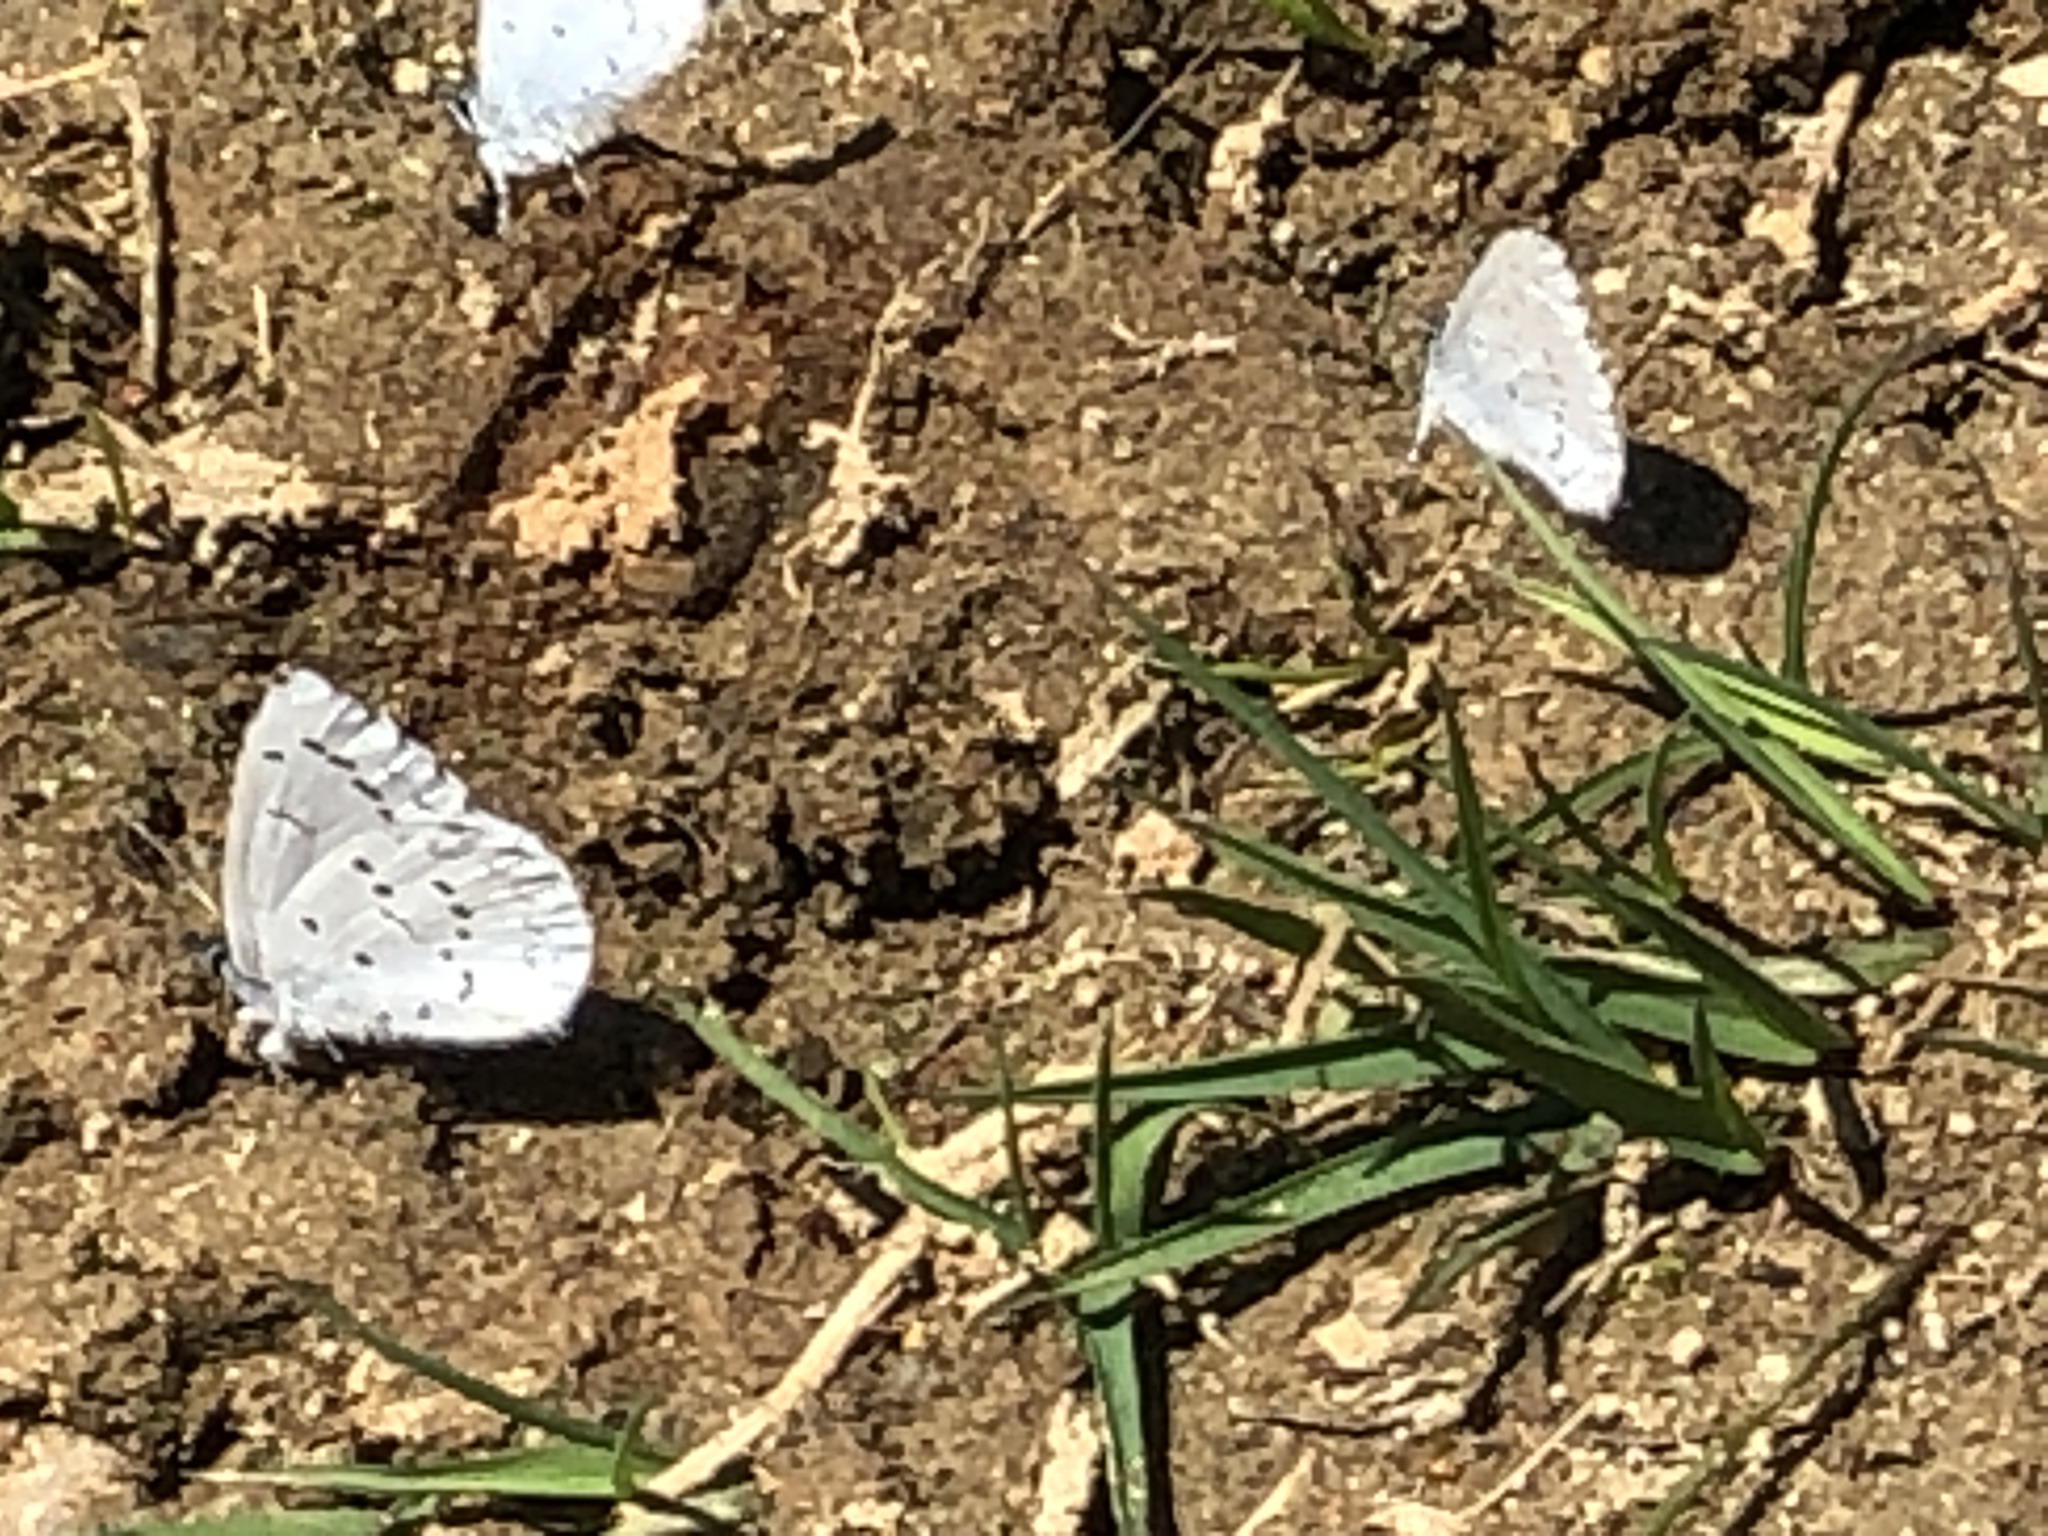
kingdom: Animalia
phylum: Arthropoda
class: Insecta
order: Lepidoptera
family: Lycaenidae
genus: Celastrina
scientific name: Celastrina ladon
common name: Spring azure
